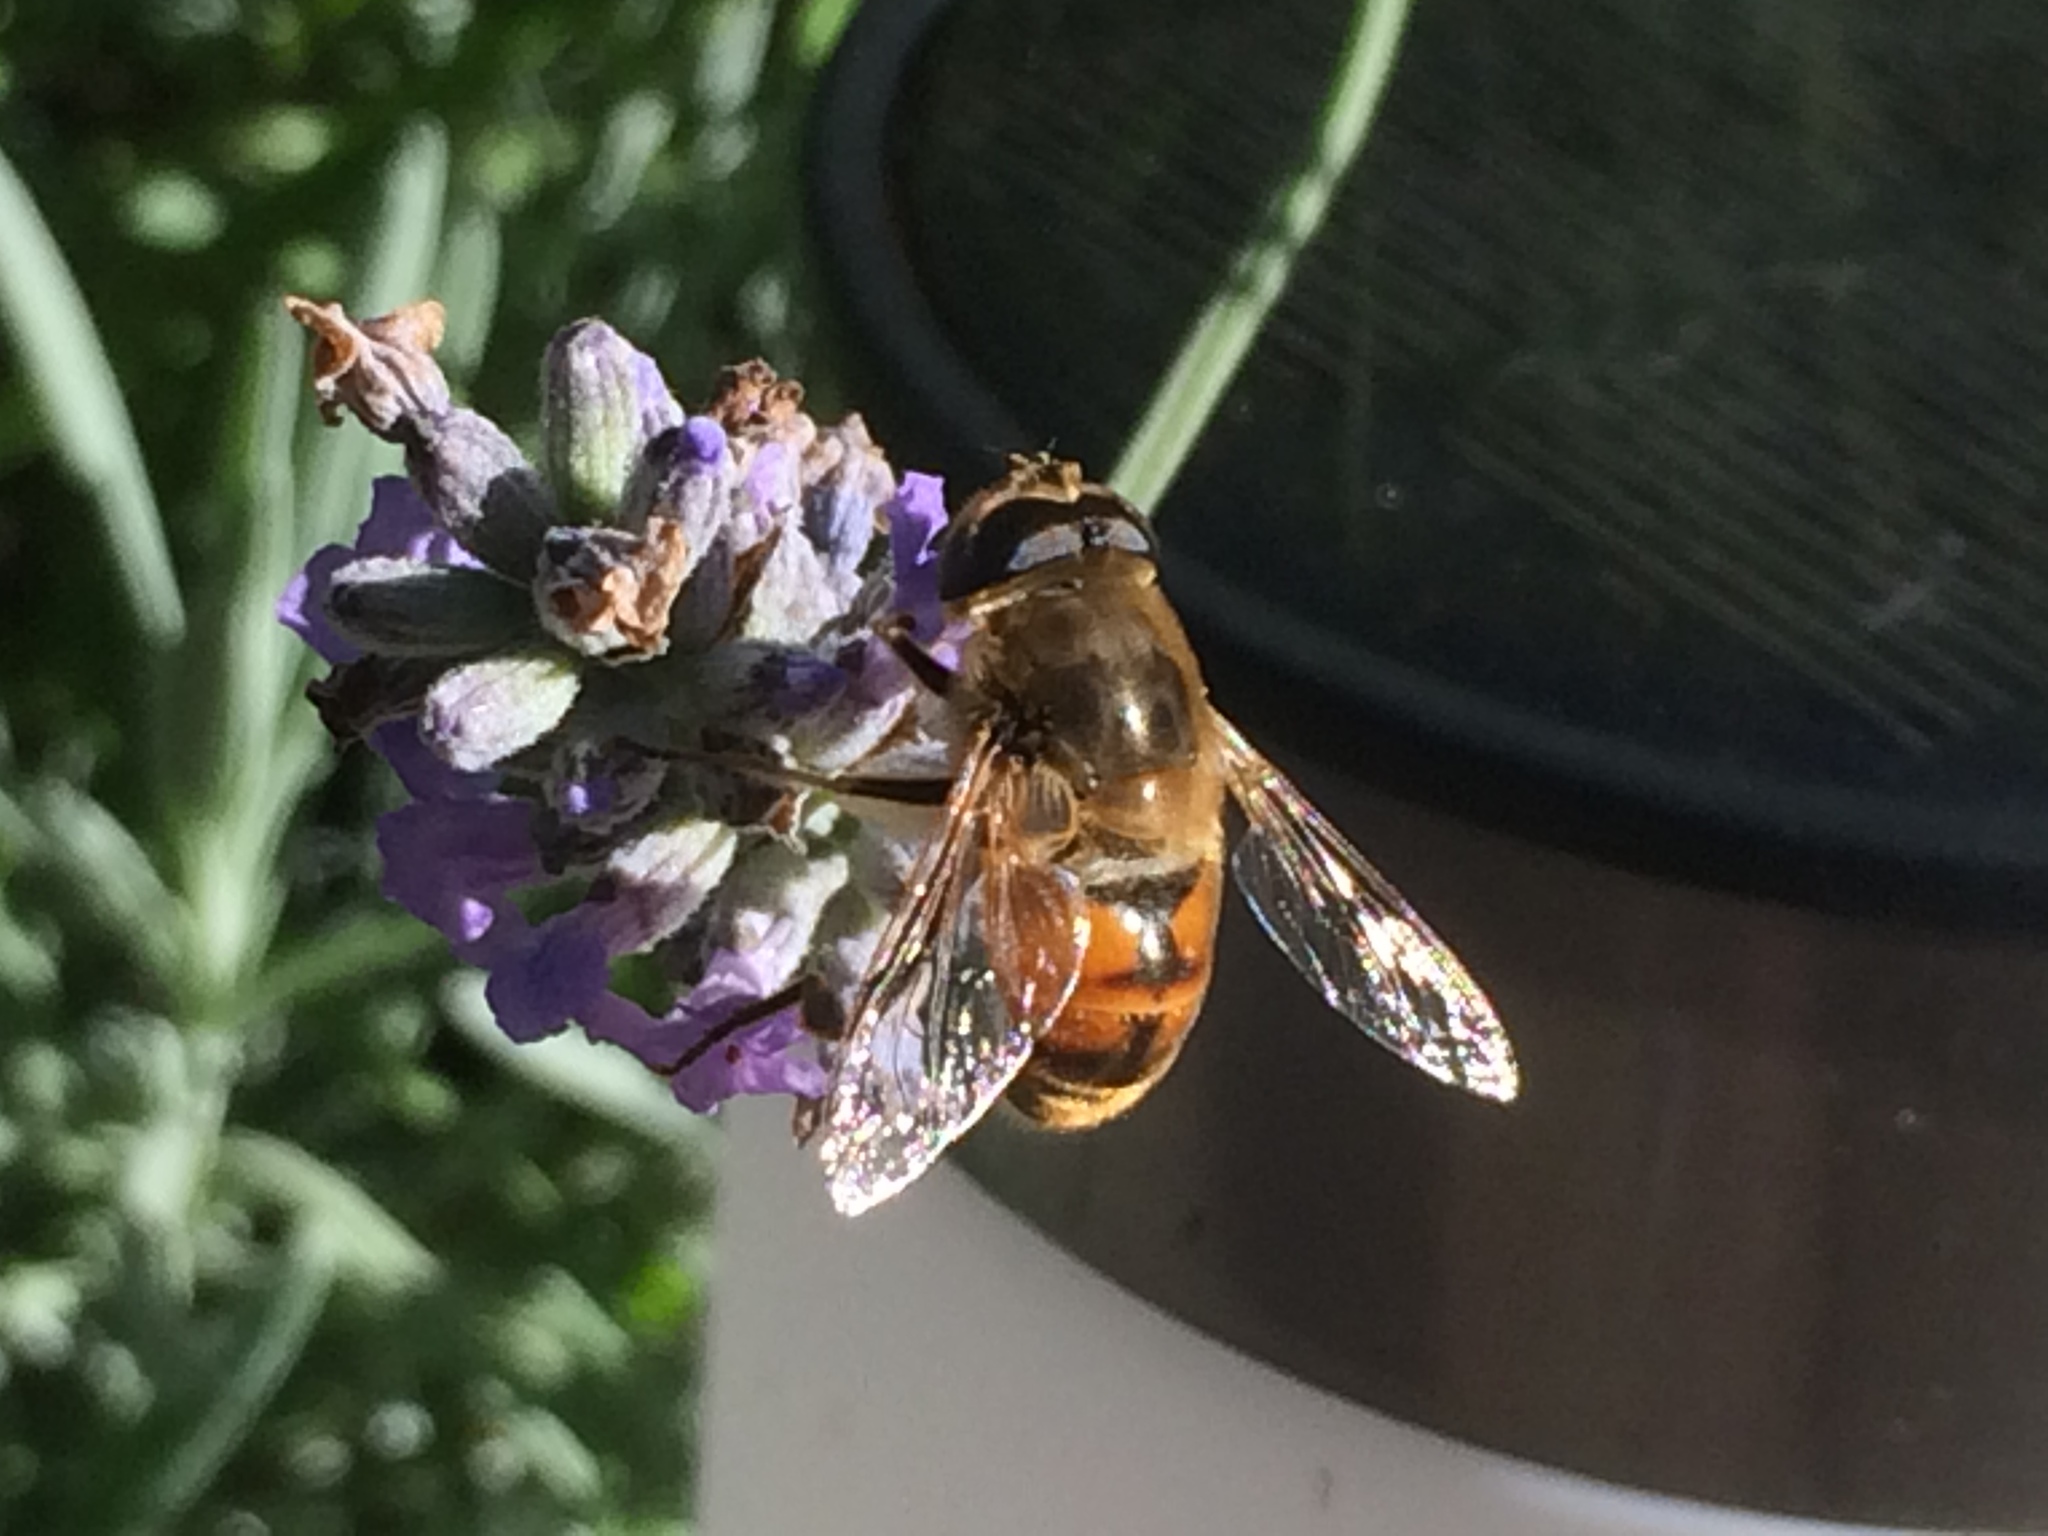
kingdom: Animalia
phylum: Arthropoda
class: Insecta
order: Diptera
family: Syrphidae
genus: Eristalis
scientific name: Eristalis tenax
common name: Drone fly
